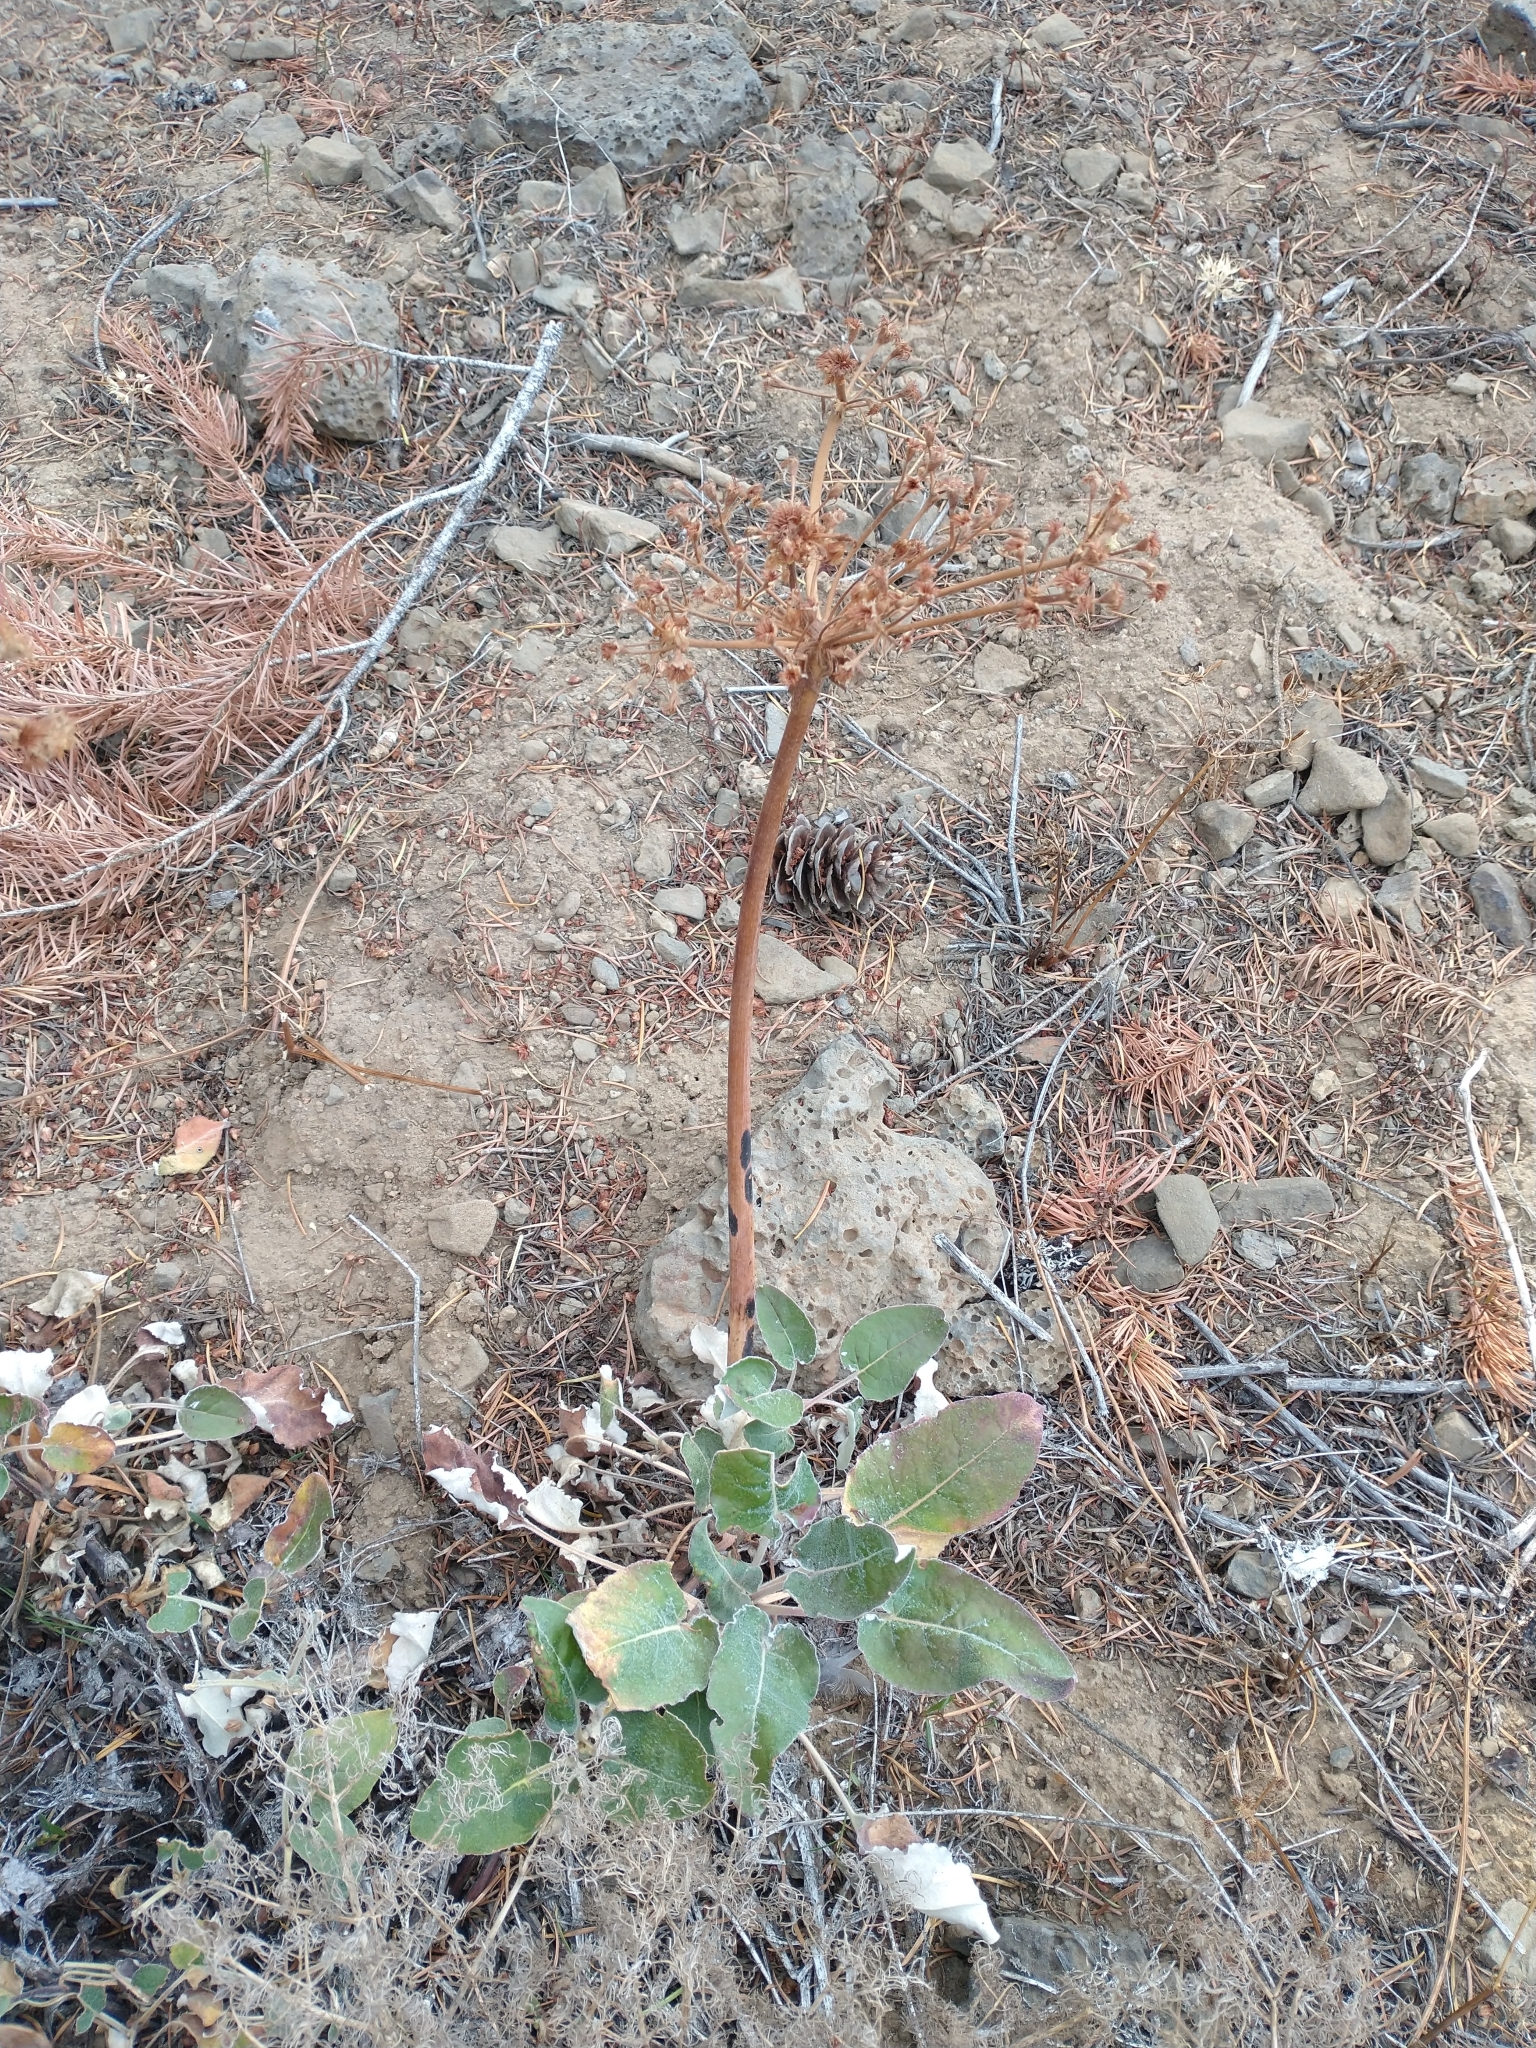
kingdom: Plantae
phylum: Tracheophyta
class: Magnoliopsida
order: Caryophyllales
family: Polygonaceae
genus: Eriogonum
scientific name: Eriogonum compositum
